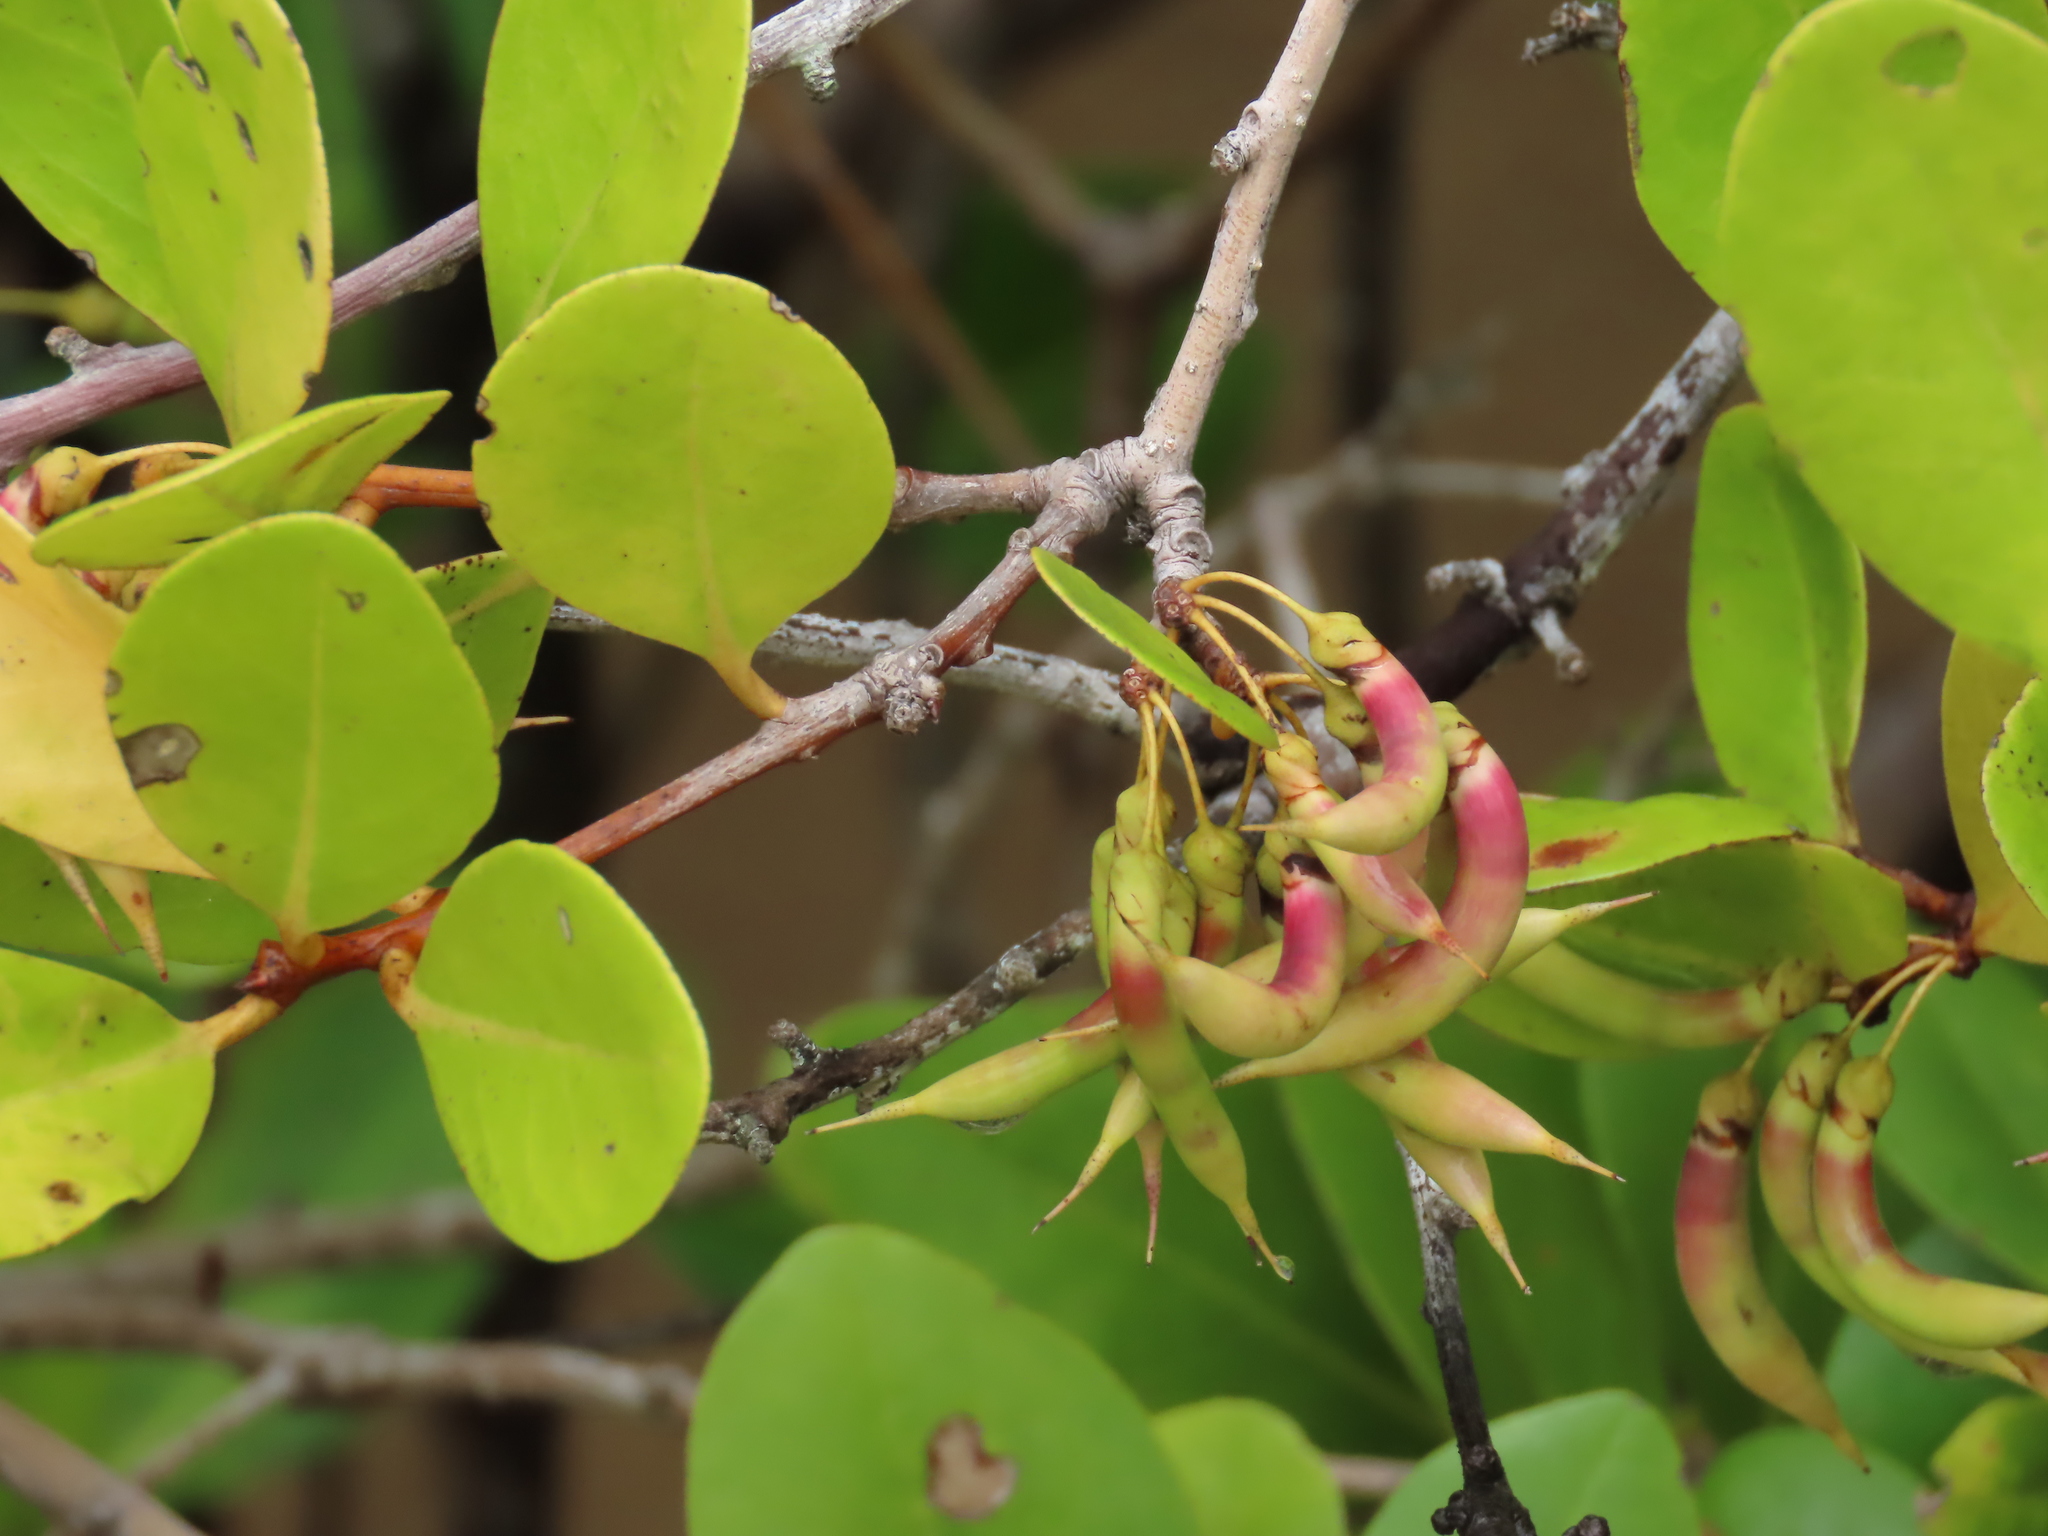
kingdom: Plantae
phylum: Tracheophyta
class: Magnoliopsida
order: Ericales
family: Primulaceae
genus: Aegiceras
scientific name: Aegiceras corniculatum
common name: River mangrove
